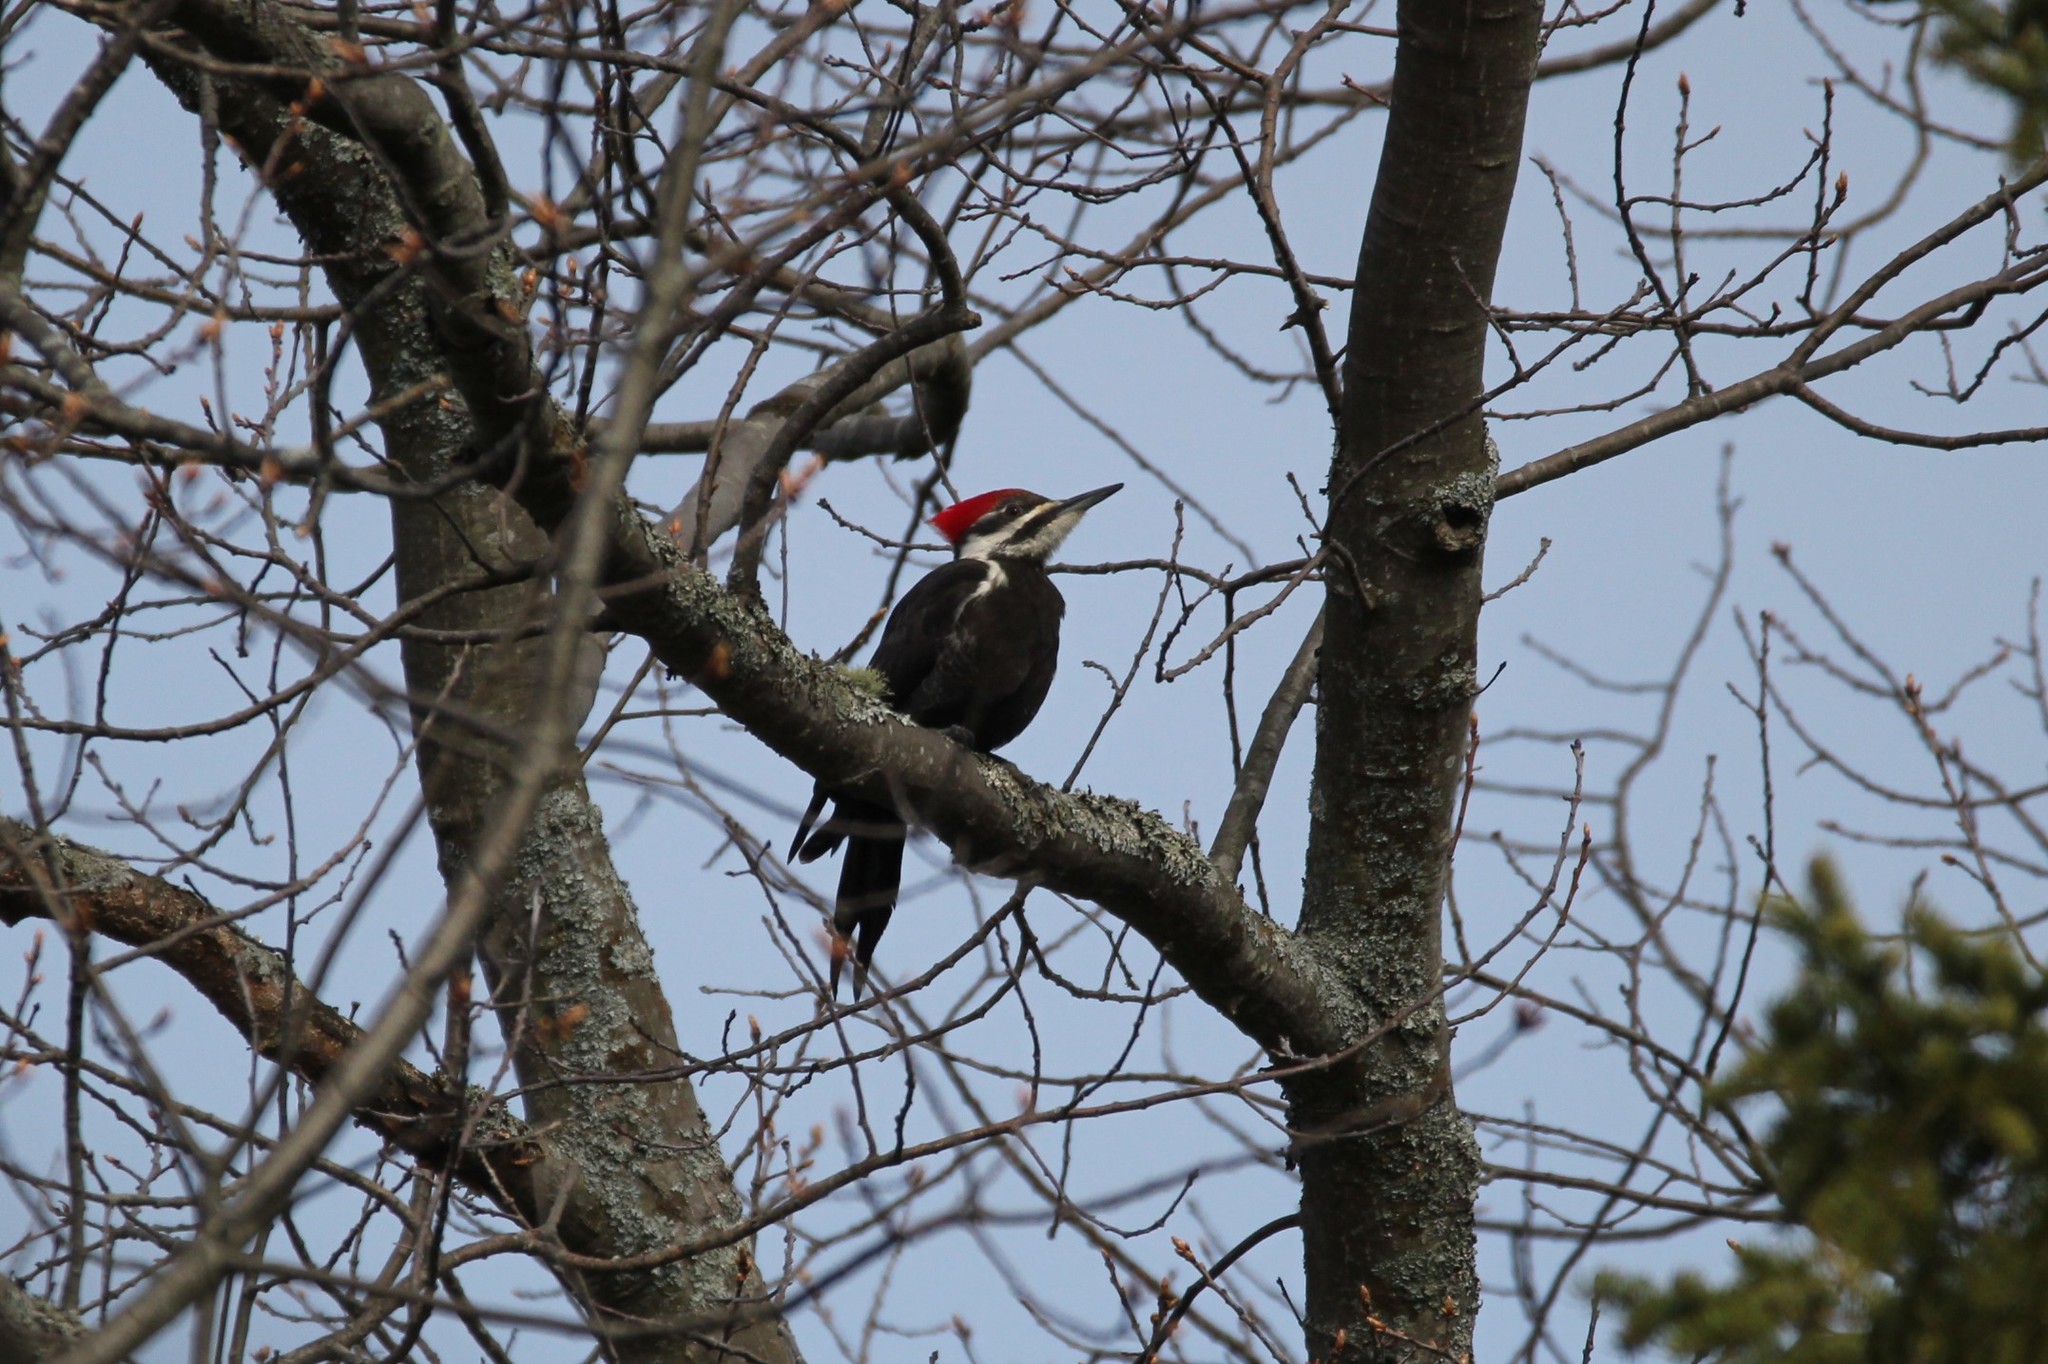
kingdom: Animalia
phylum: Chordata
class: Aves
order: Piciformes
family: Picidae
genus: Dryocopus
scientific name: Dryocopus pileatus
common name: Pileated woodpecker
